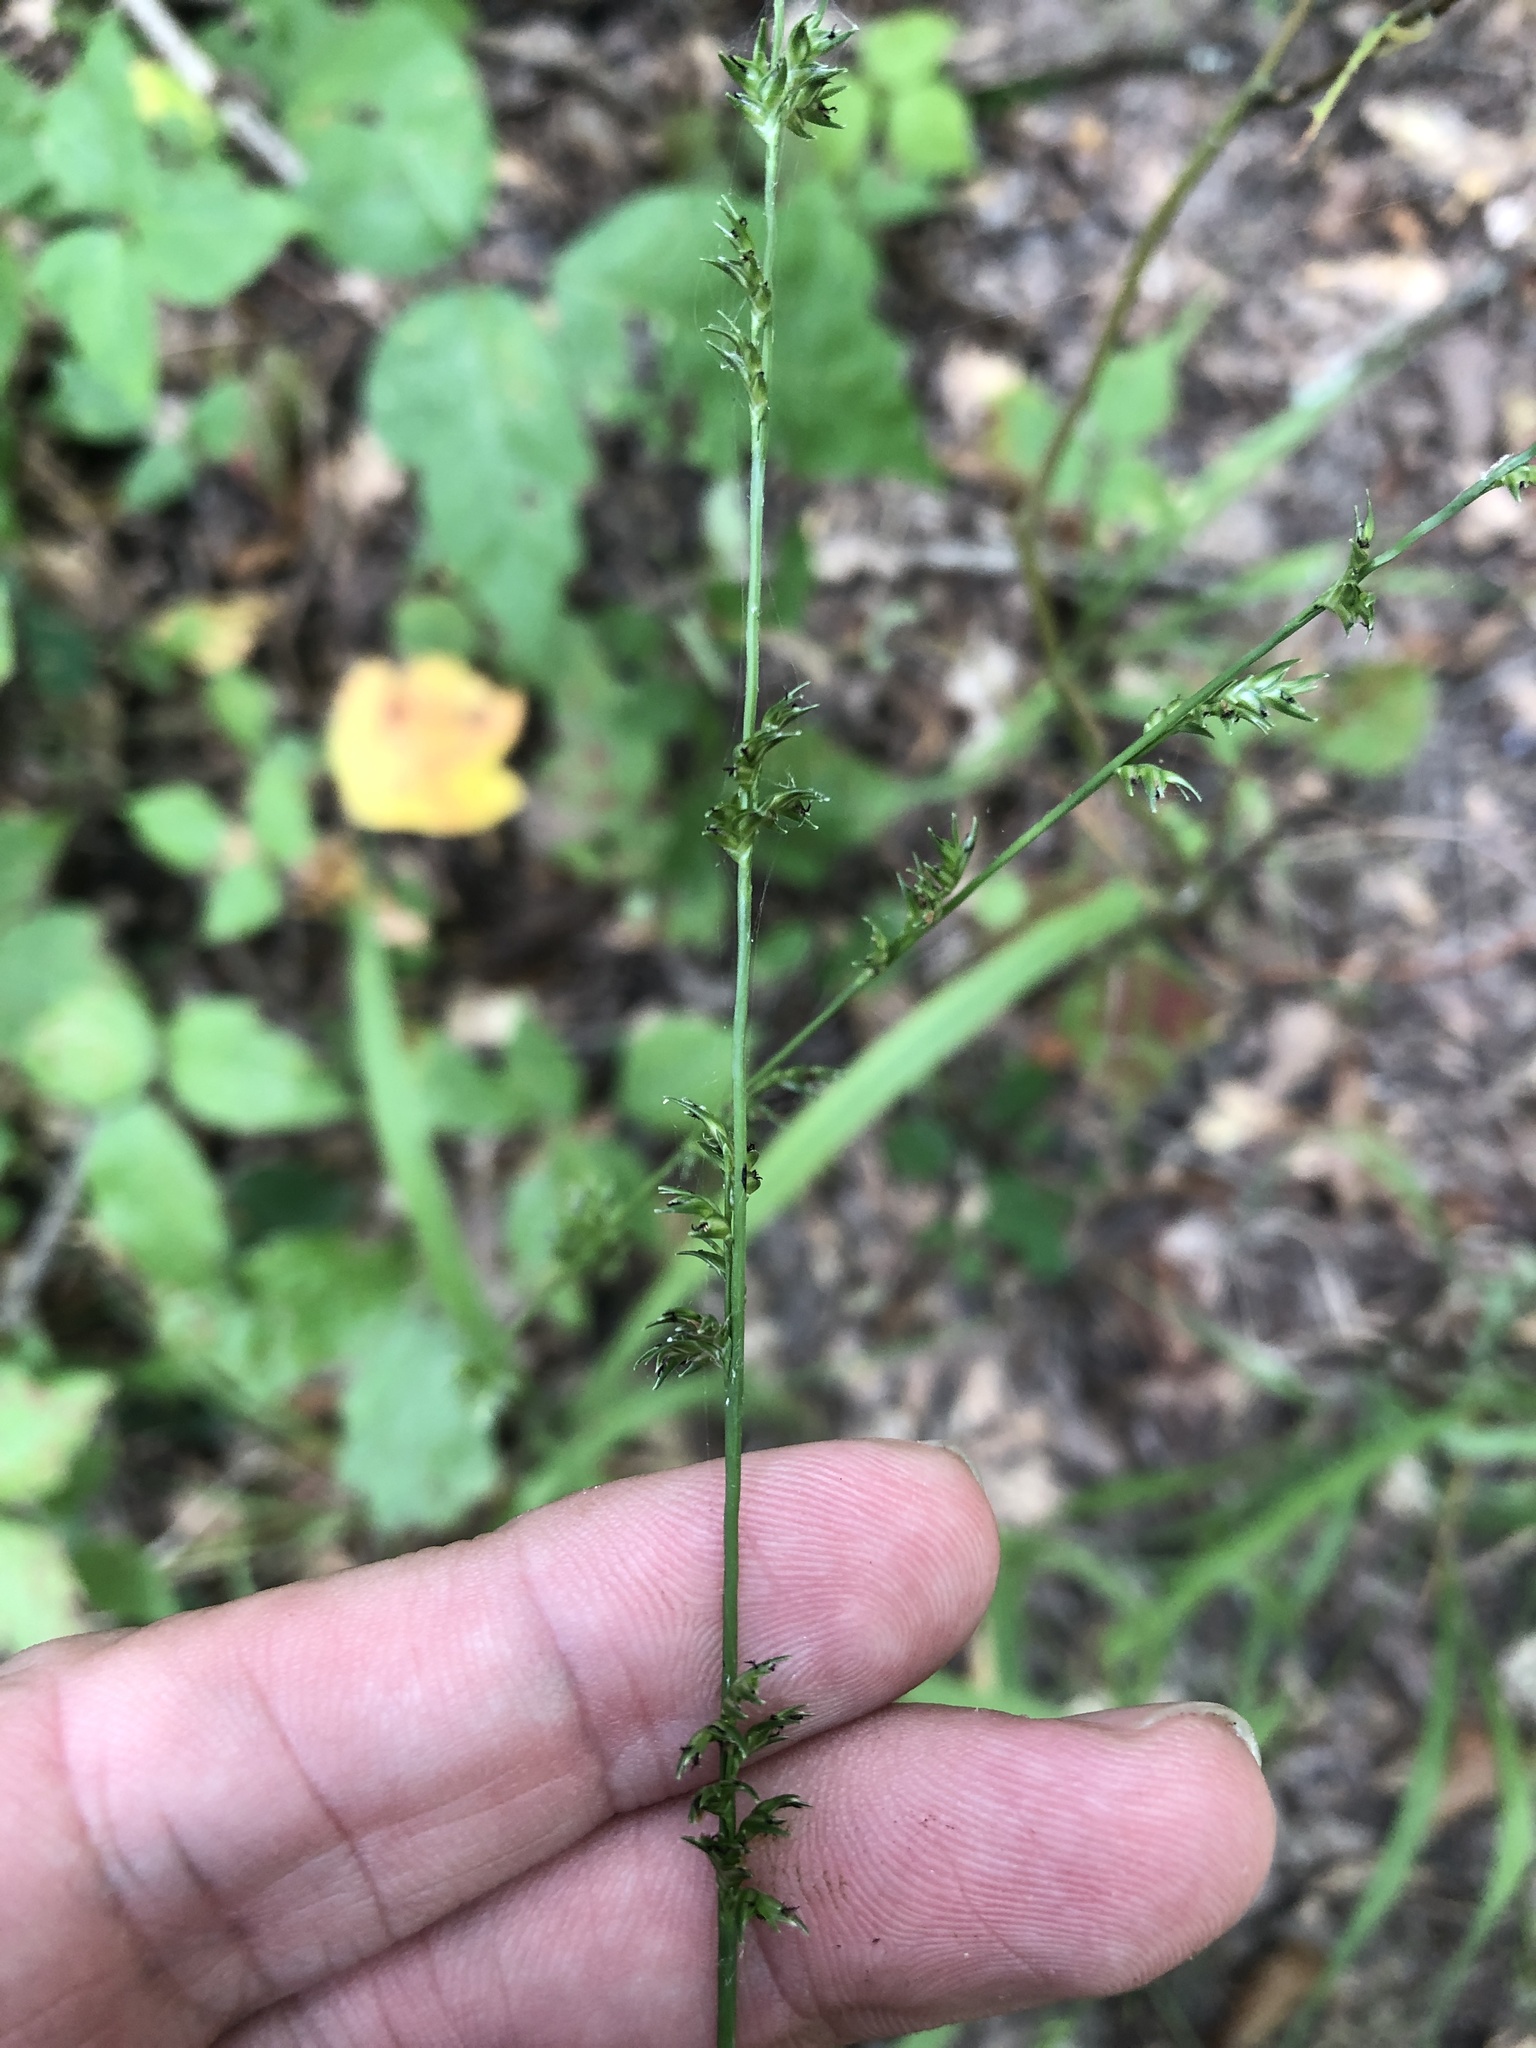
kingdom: Plantae
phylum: Tracheophyta
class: Liliopsida
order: Poales
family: Poaceae
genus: Chasmanthium
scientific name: Chasmanthium laxum
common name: Slender chasmanthium
